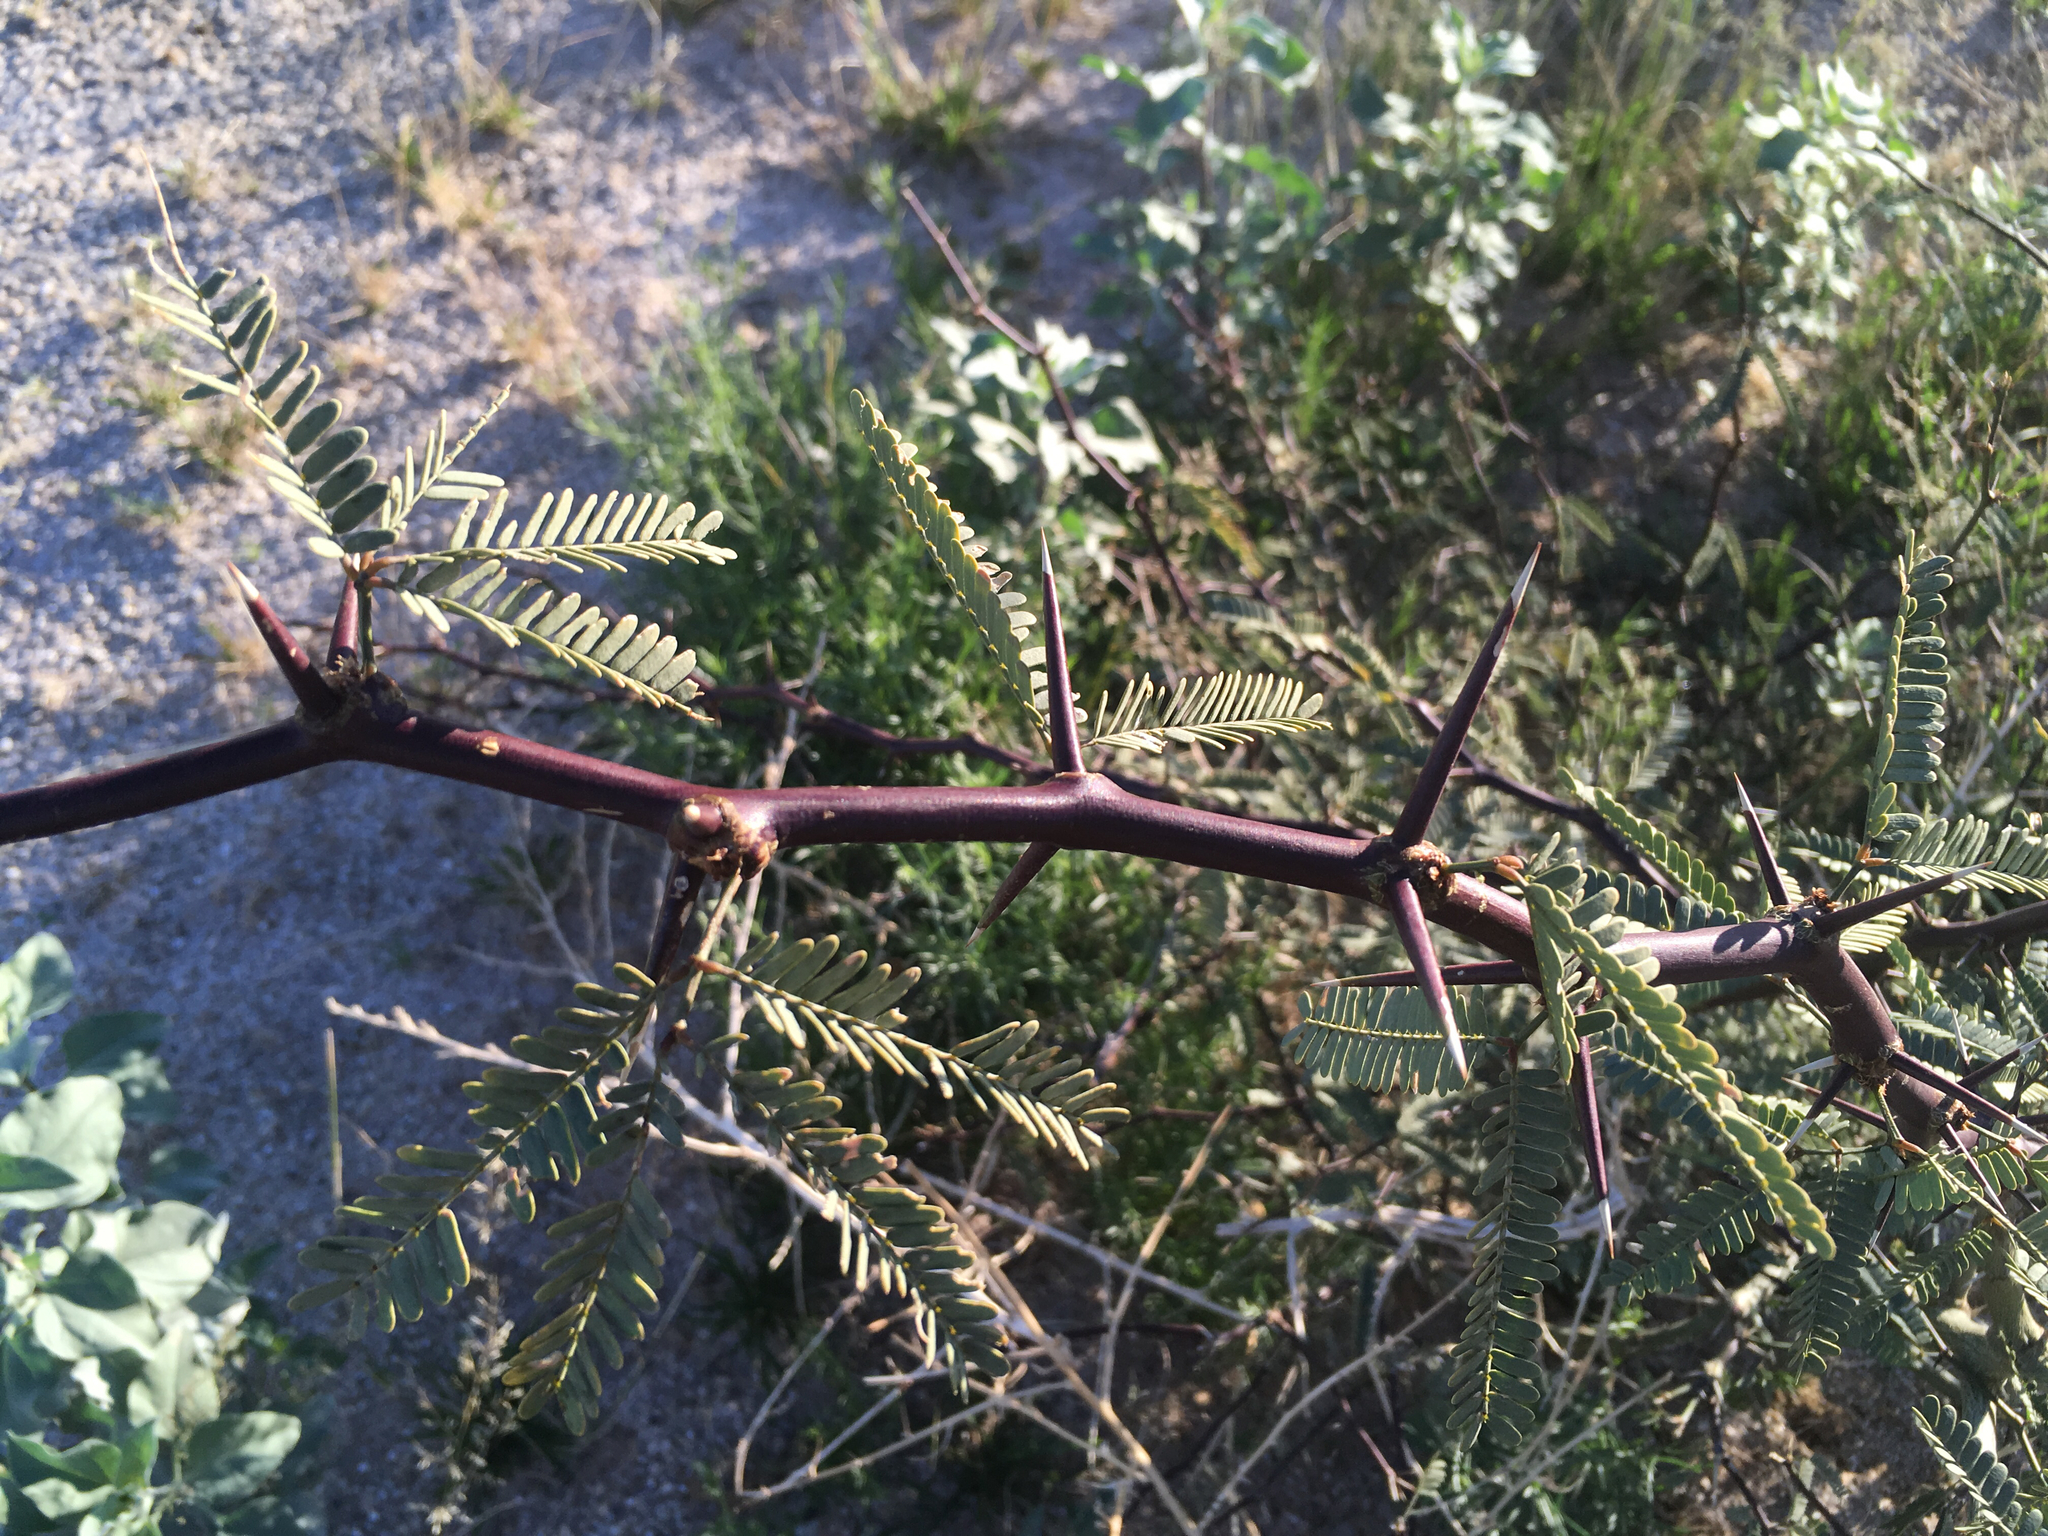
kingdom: Plantae
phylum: Tracheophyta
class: Magnoliopsida
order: Fabales
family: Fabaceae
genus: Prosopis
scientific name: Prosopis pubescens
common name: Screw-bean
